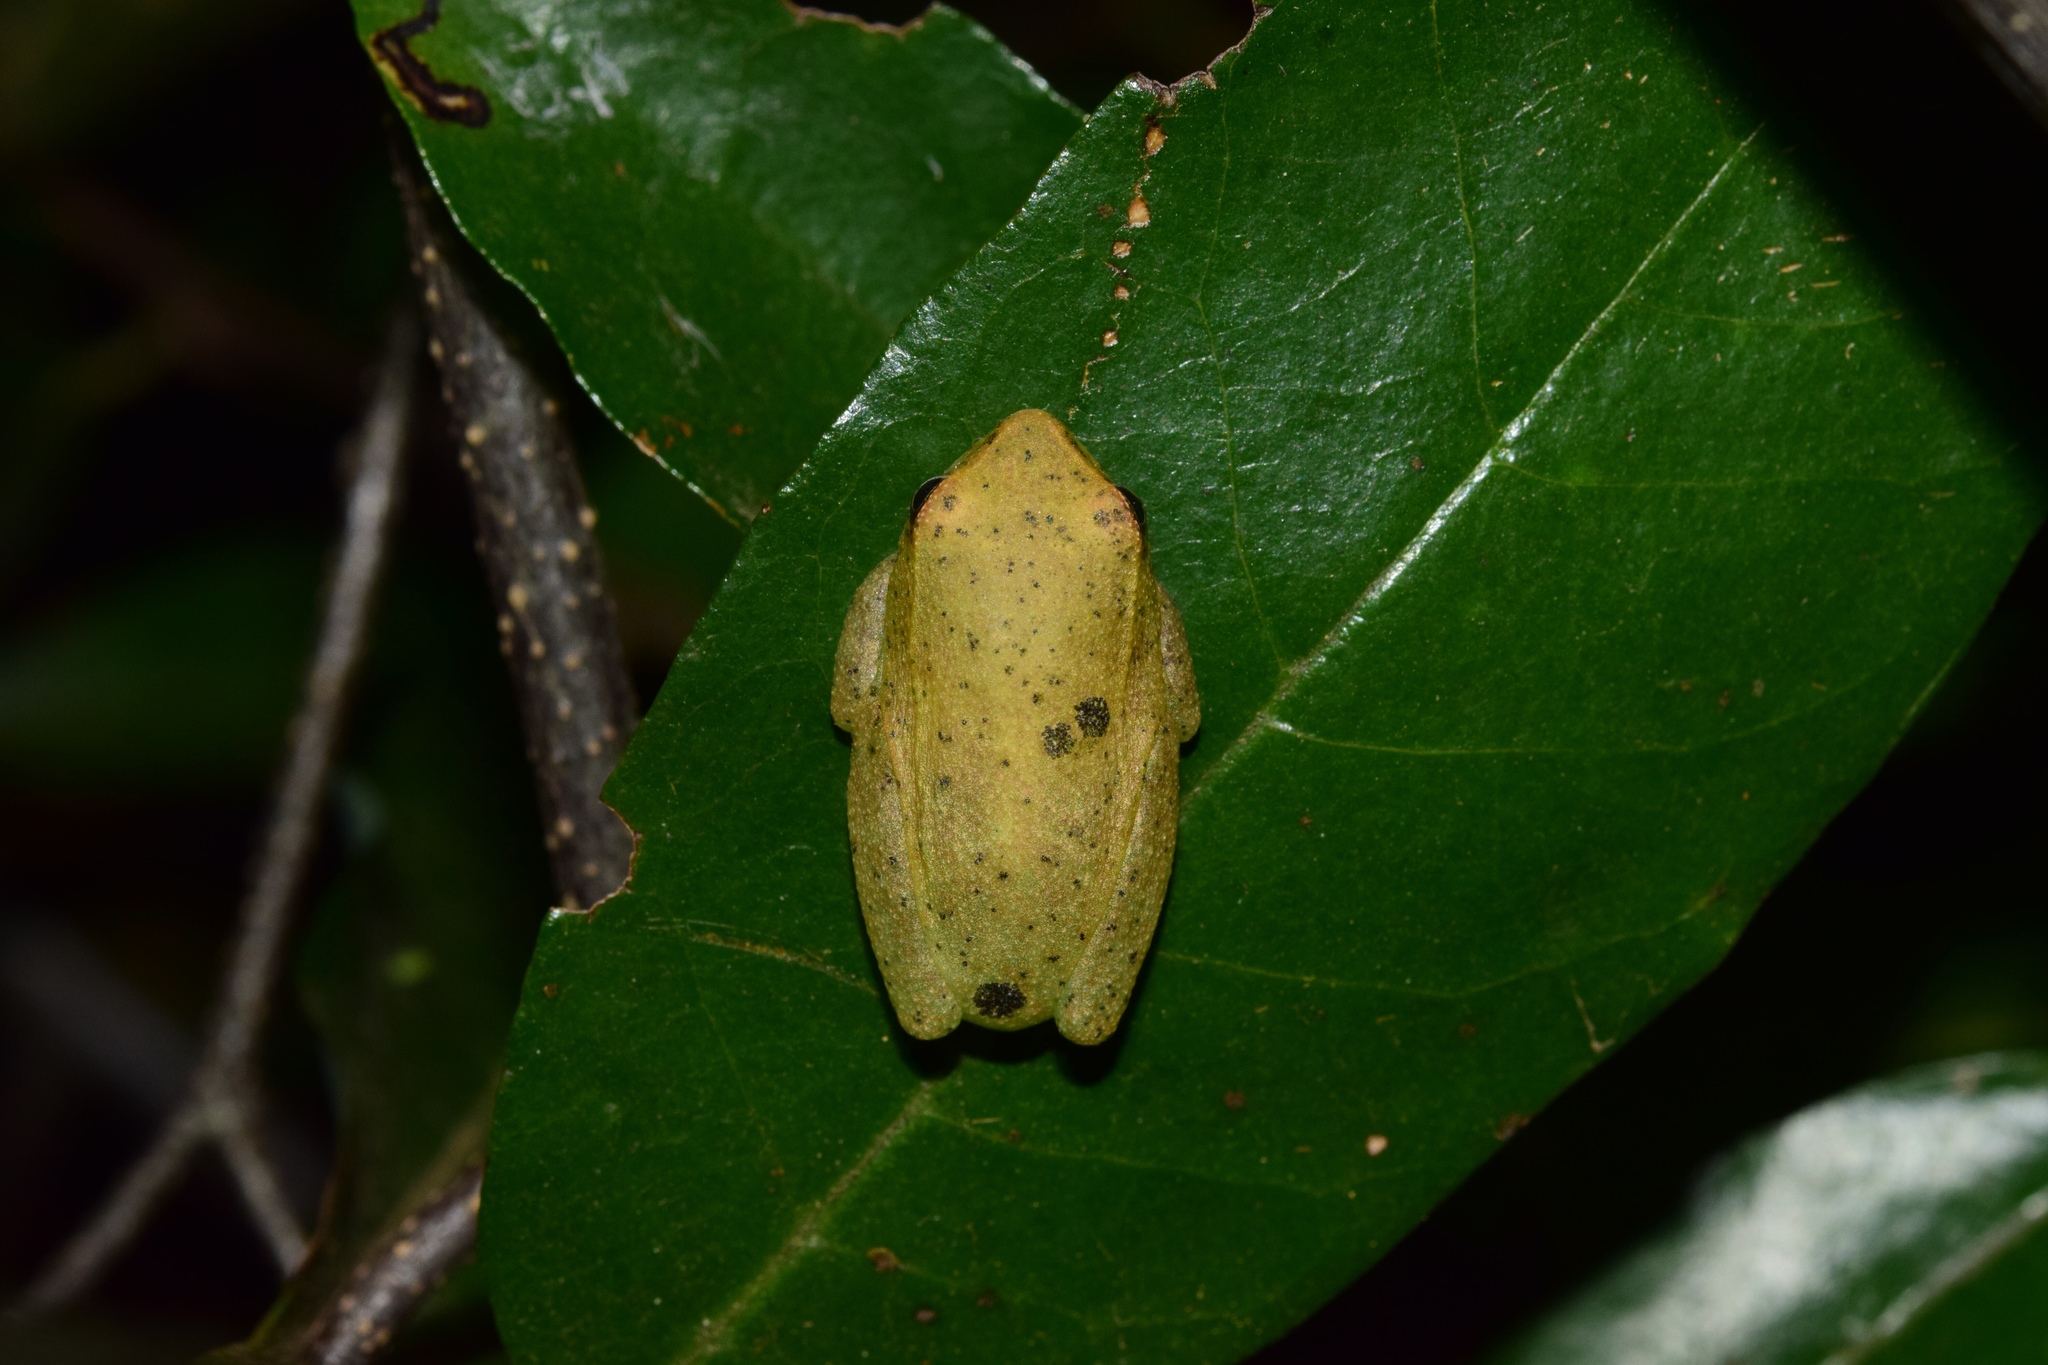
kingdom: Animalia
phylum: Chordata
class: Amphibia
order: Anura
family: Hyperoliidae
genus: Hyperolius
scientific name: Hyperolius pusillus
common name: Water lily reed frog
